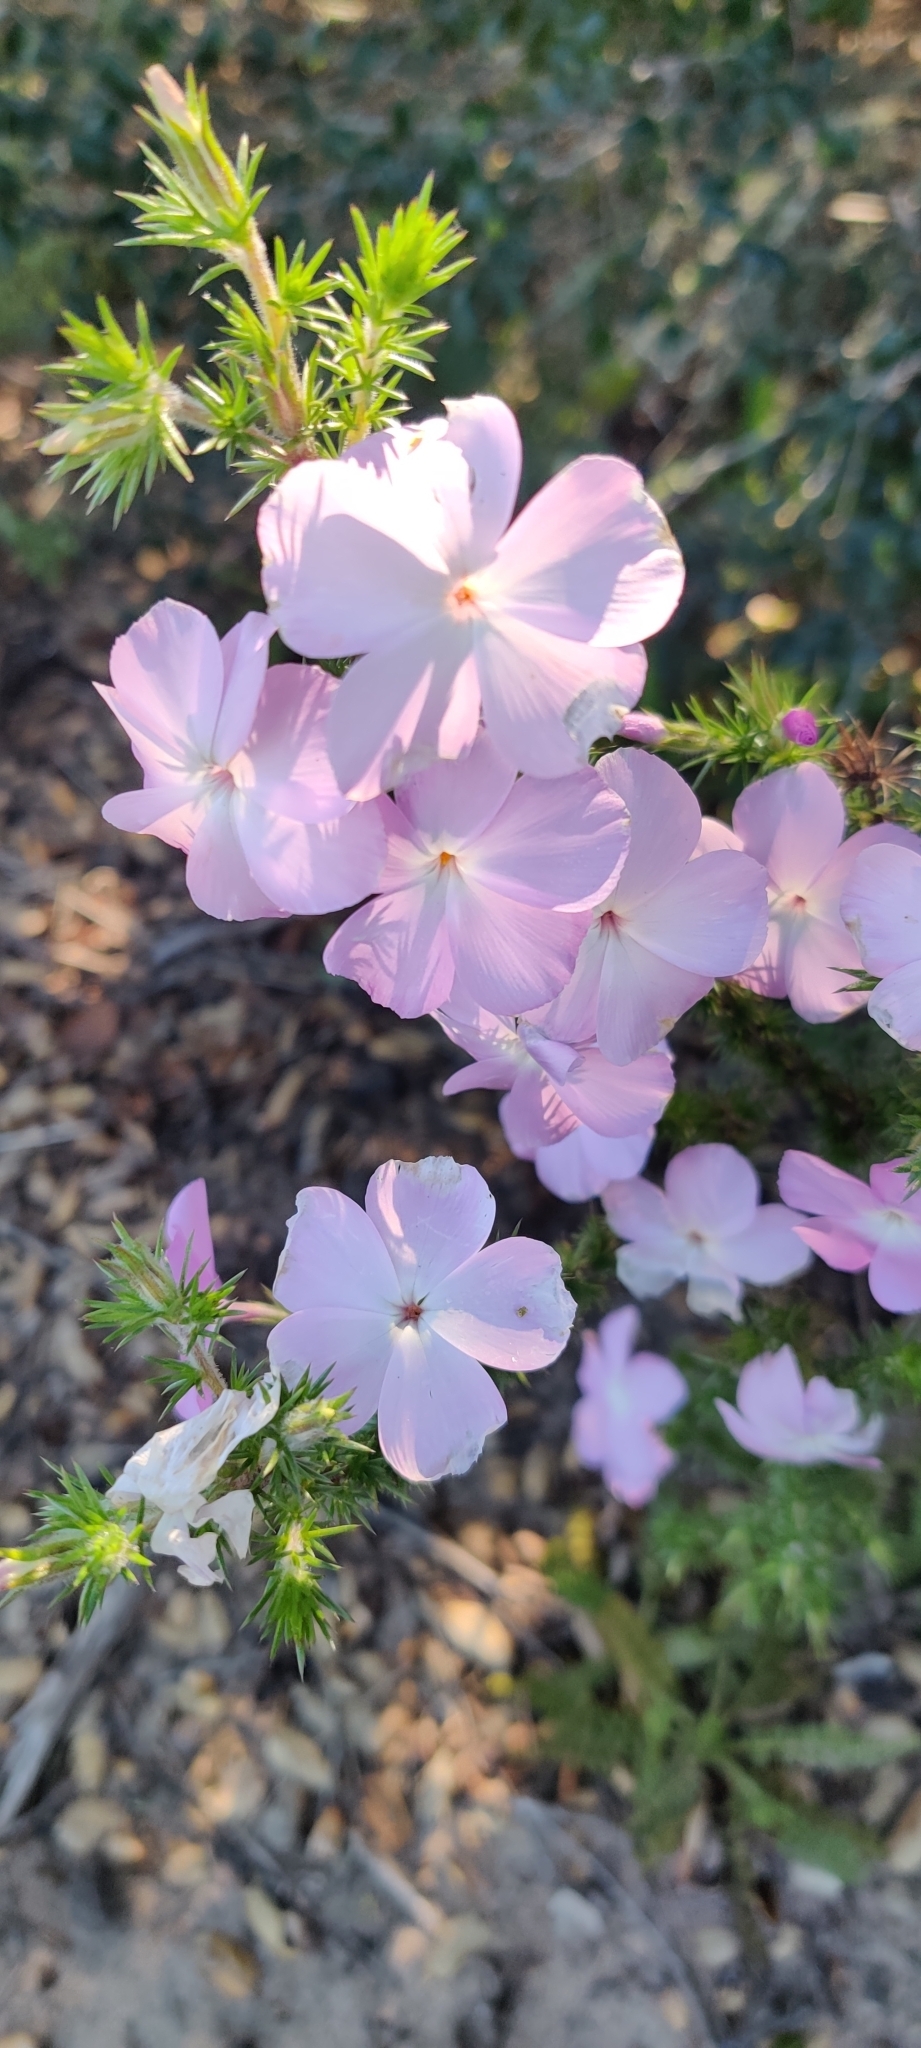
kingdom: Plantae
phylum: Tracheophyta
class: Magnoliopsida
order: Ericales
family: Polemoniaceae
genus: Linanthus
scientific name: Linanthus californicus
